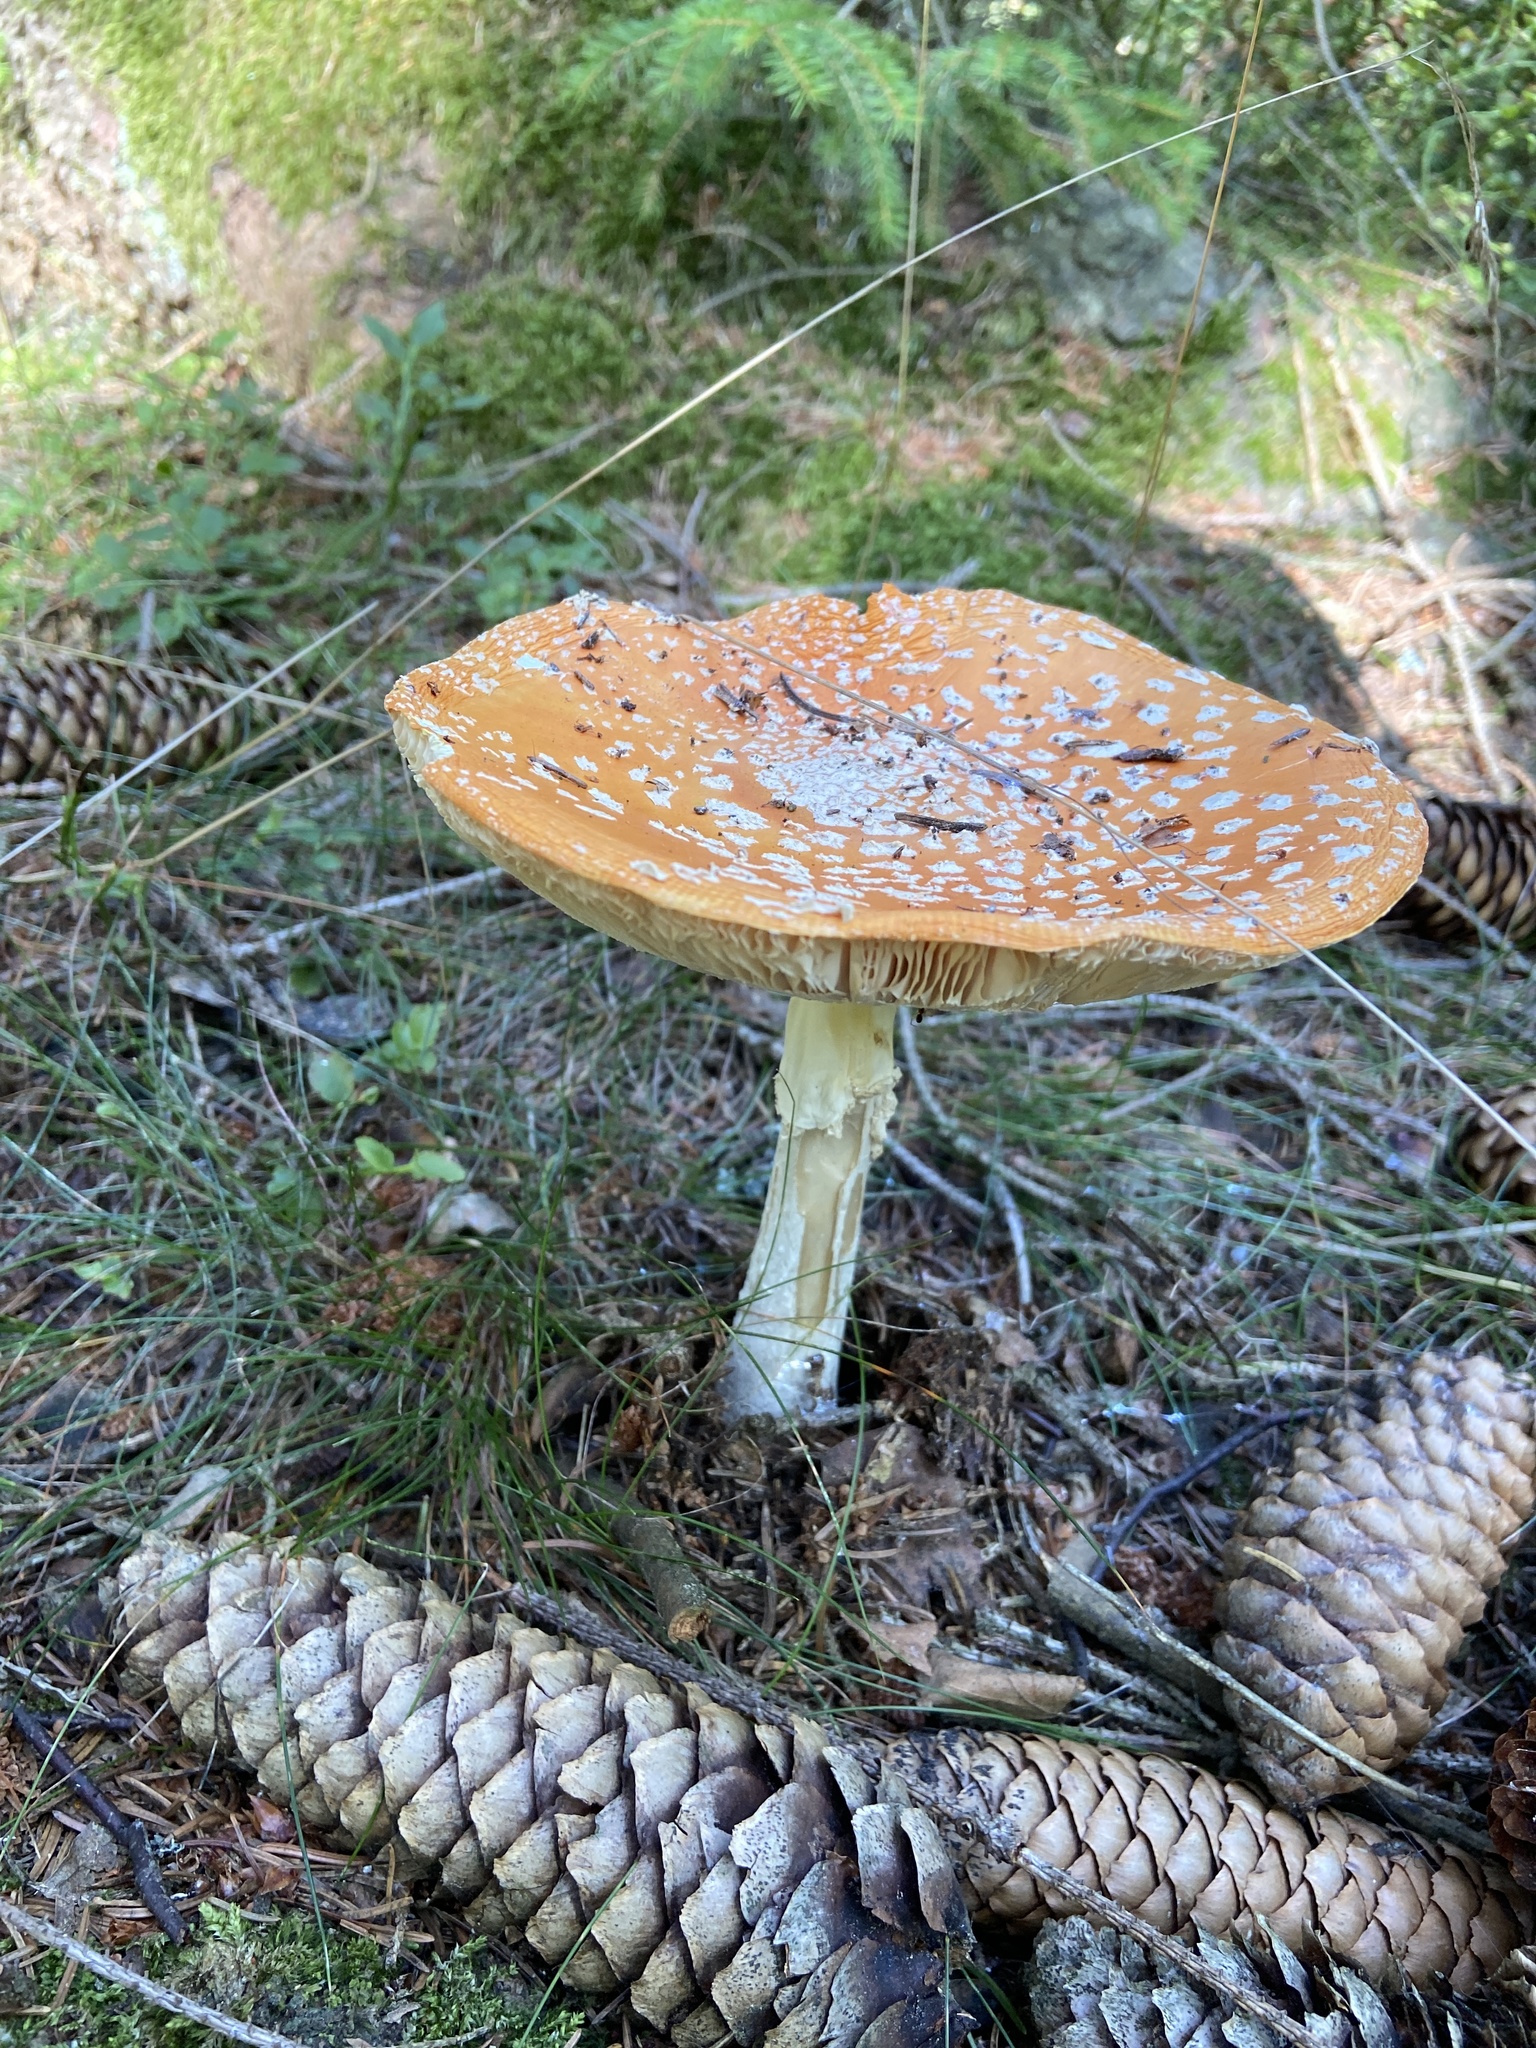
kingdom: Fungi
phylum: Basidiomycota
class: Agaricomycetes
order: Agaricales
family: Amanitaceae
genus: Amanita
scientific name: Amanita muscaria
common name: Fly agaric
